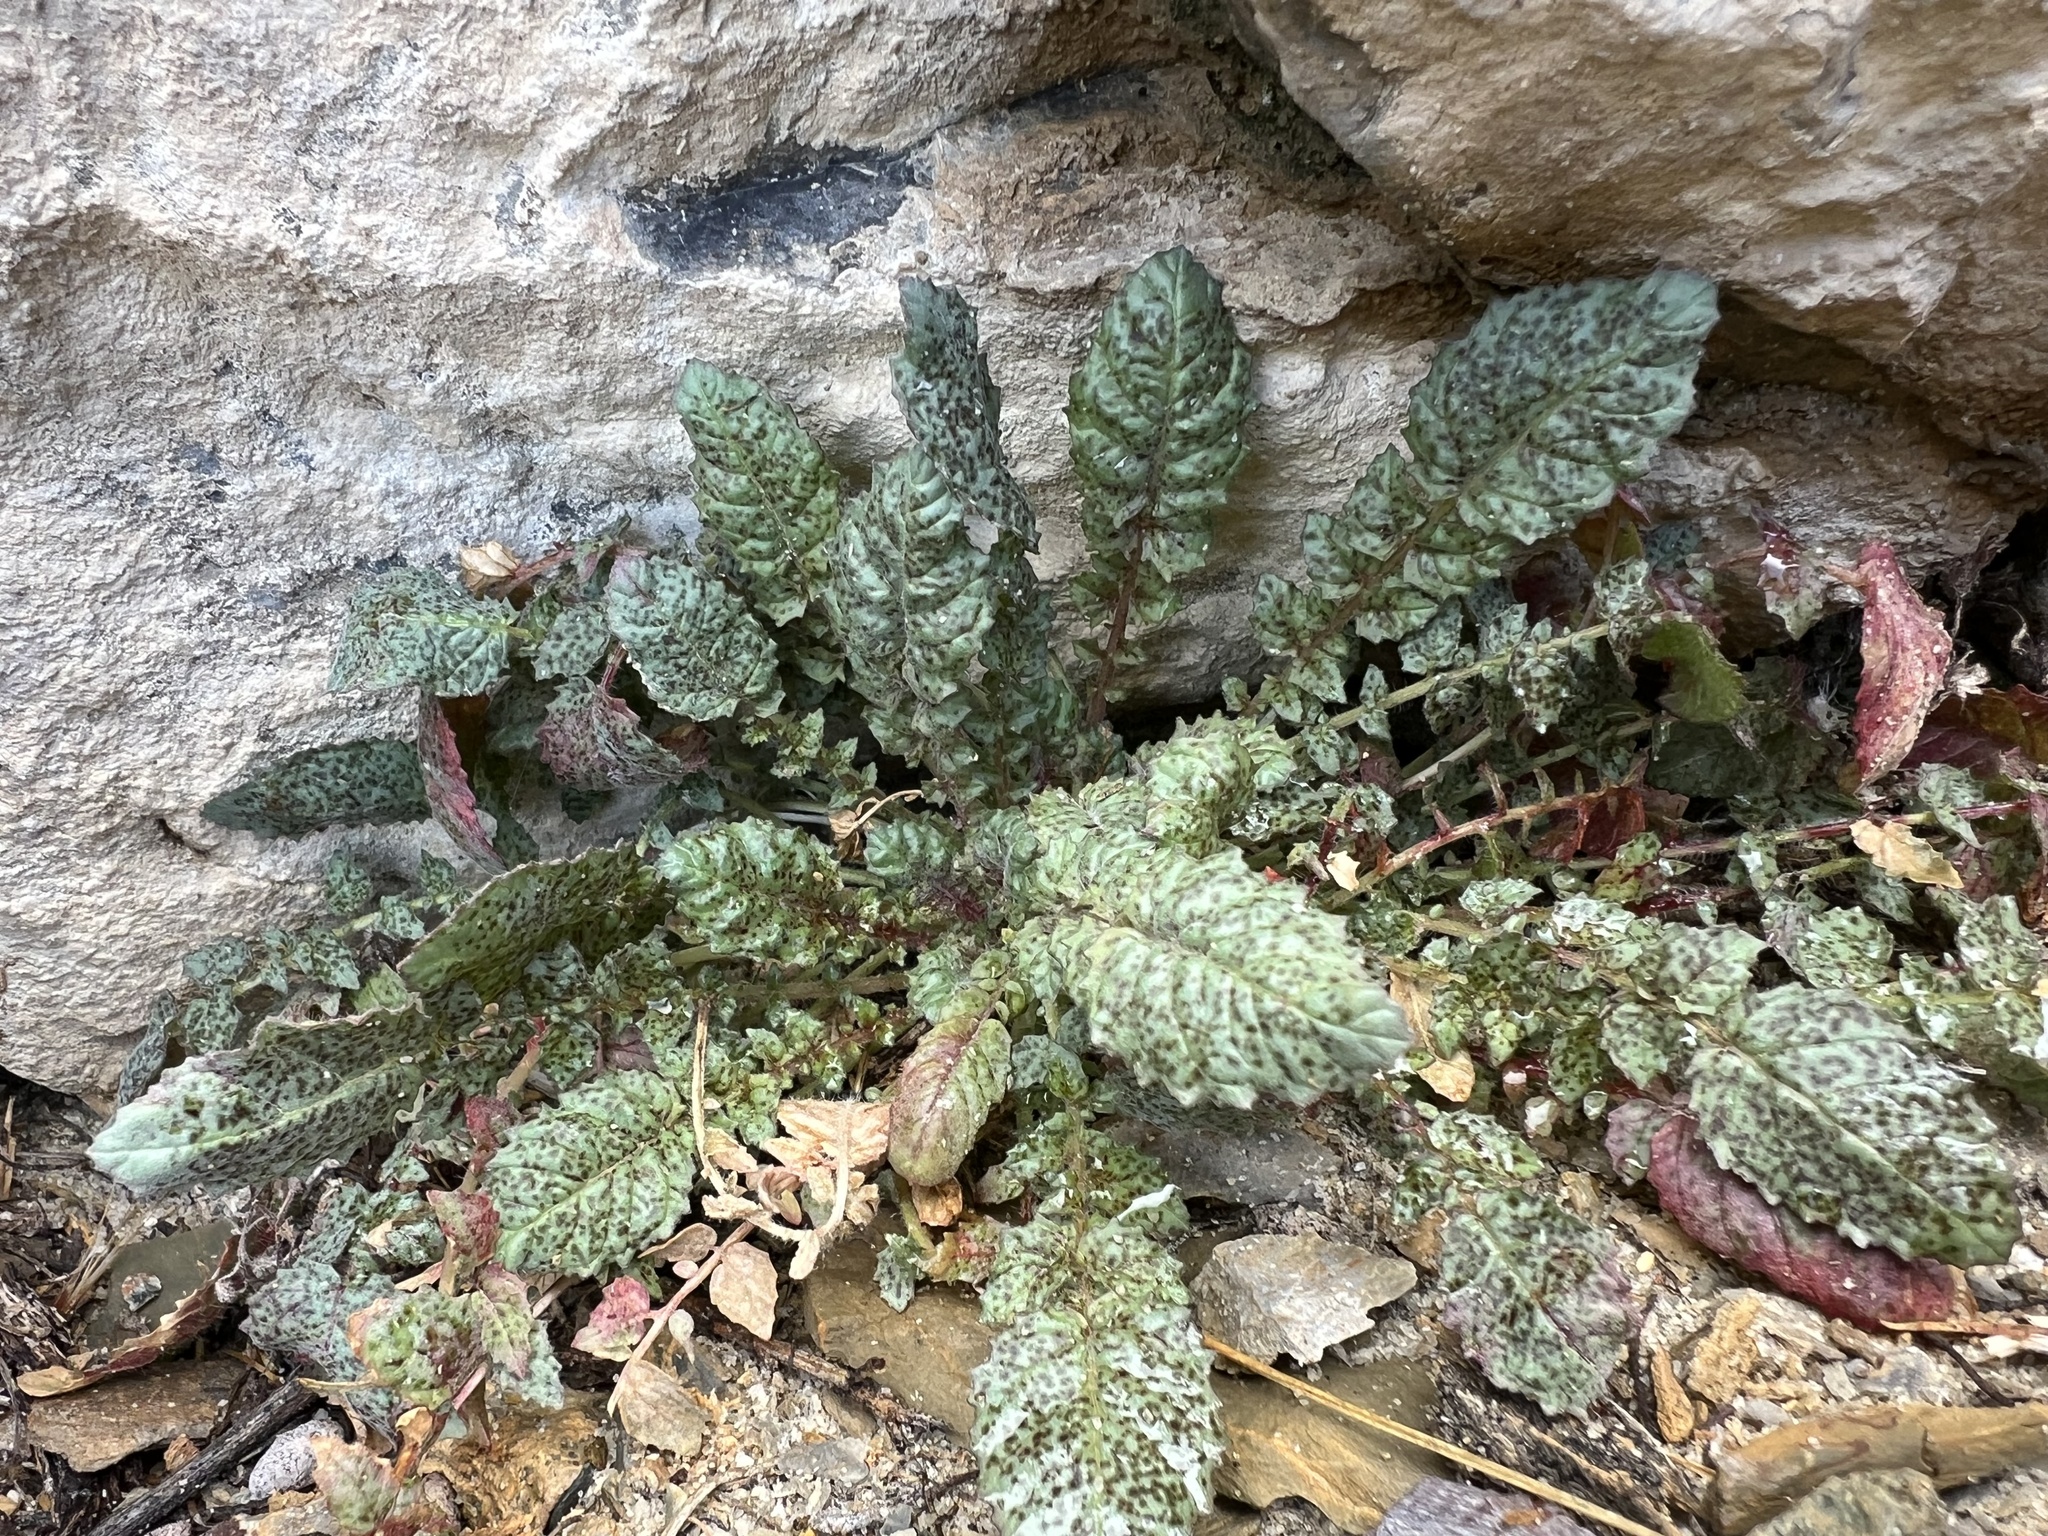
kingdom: Plantae
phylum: Tracheophyta
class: Magnoliopsida
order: Myrtales
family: Onagraceae
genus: Chylismia
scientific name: Chylismia walkeri
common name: Walker's suncup
